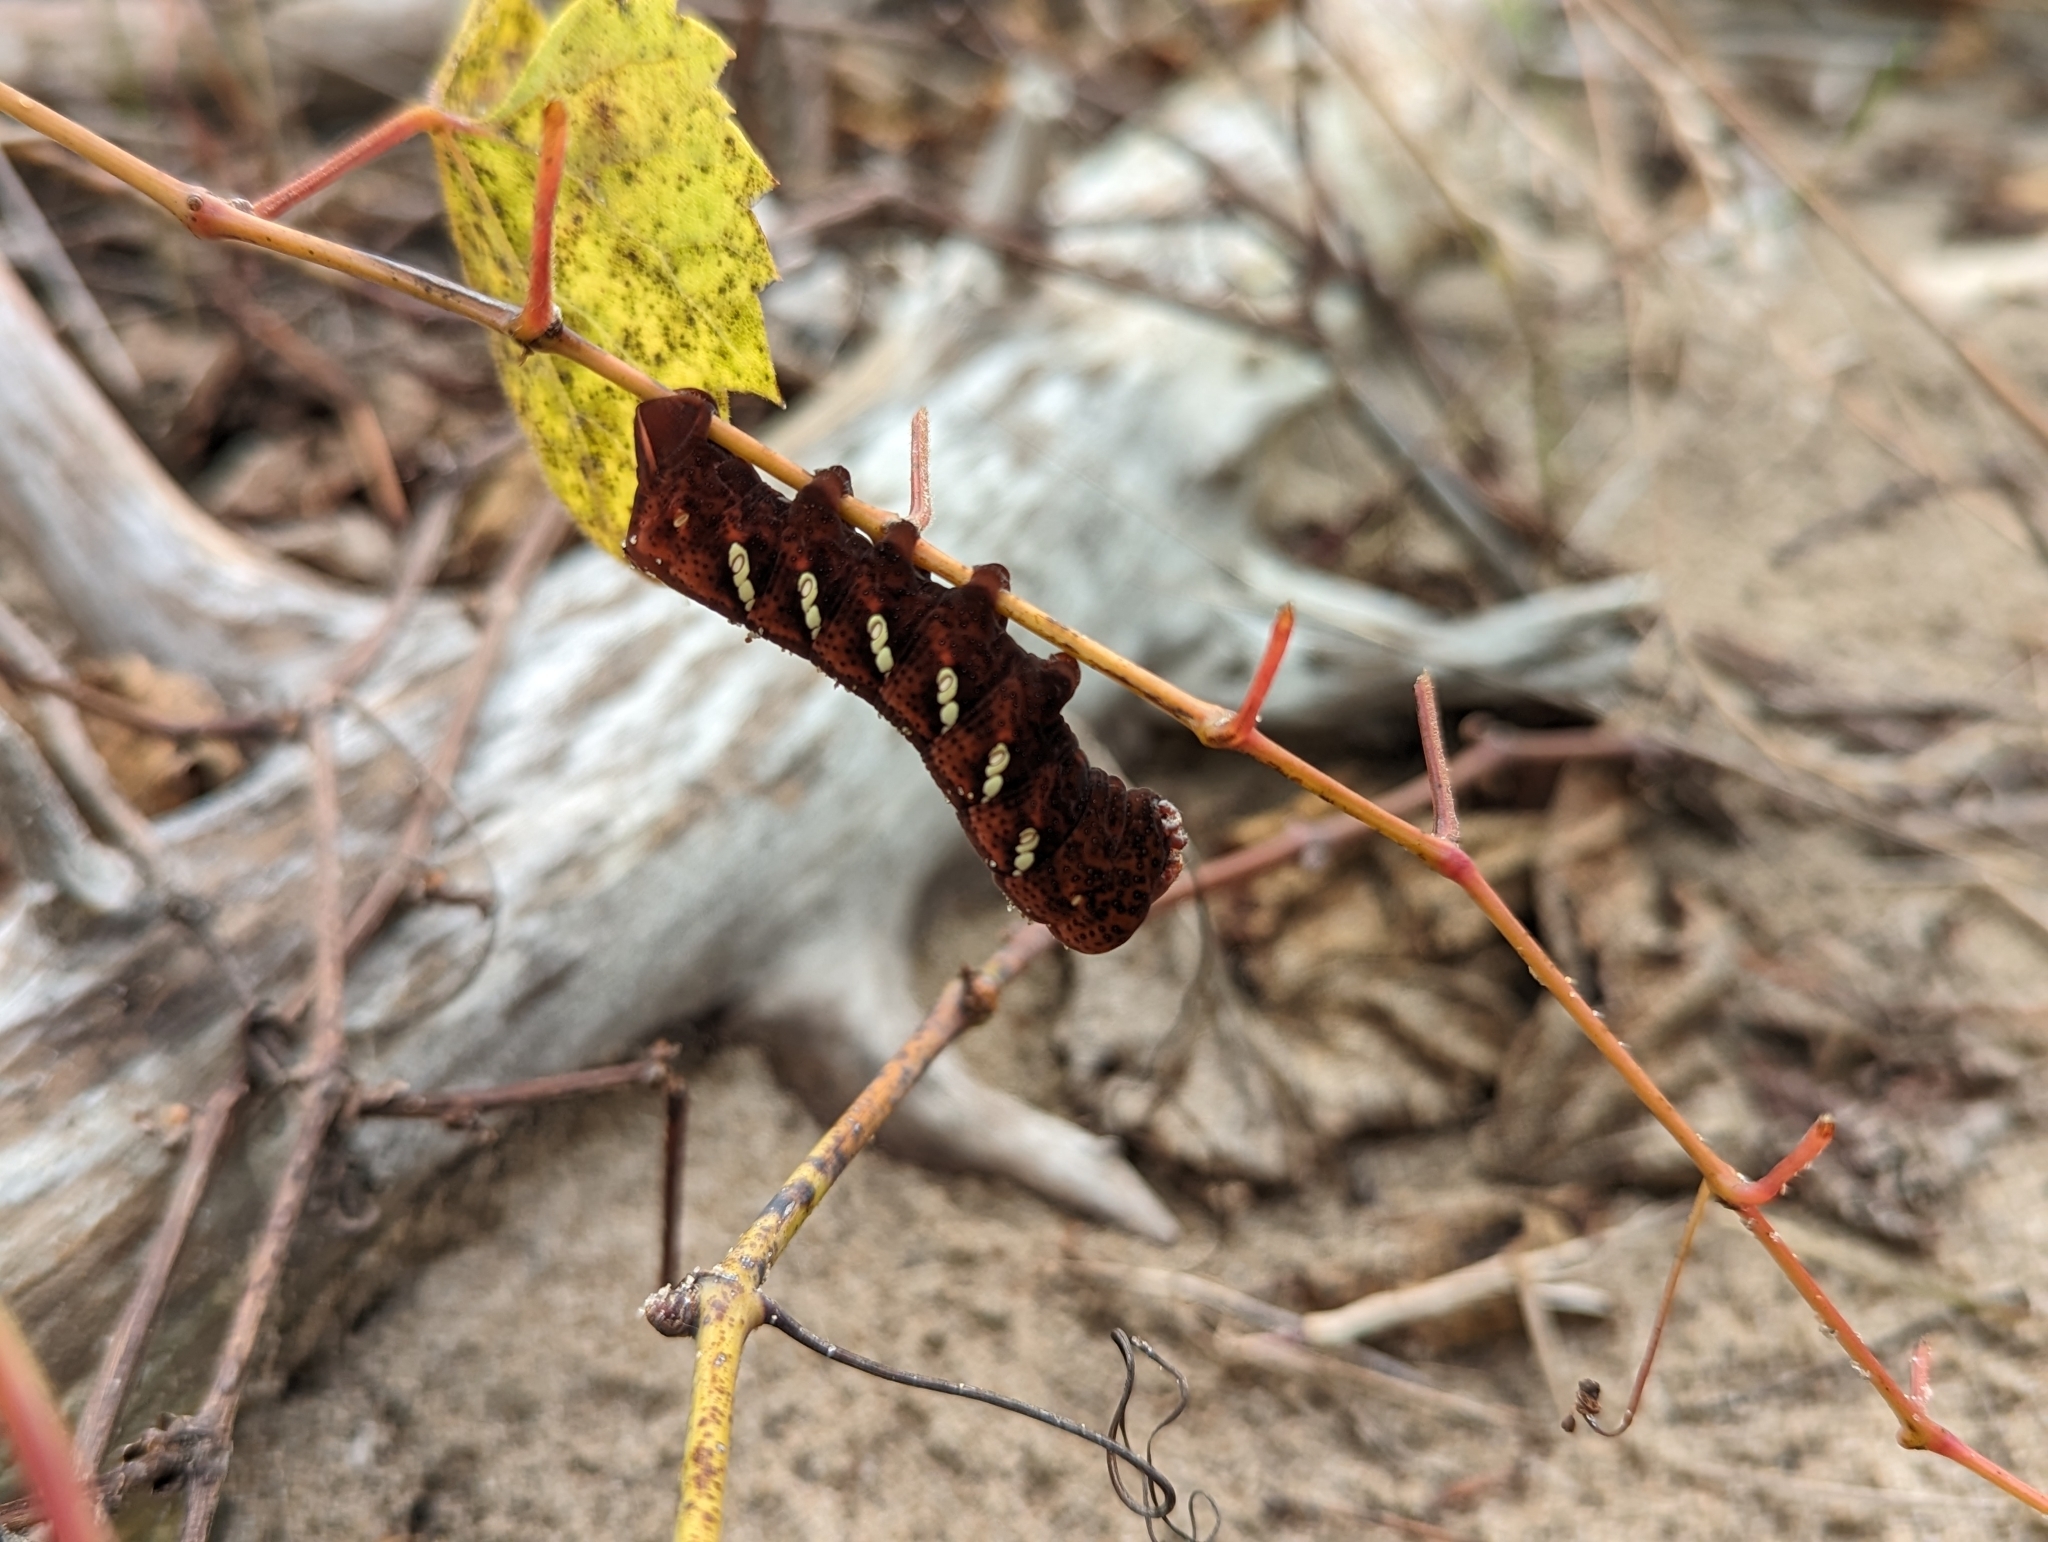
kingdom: Animalia
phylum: Arthropoda
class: Insecta
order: Lepidoptera
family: Sphingidae
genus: Eumorpha
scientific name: Eumorpha achemon
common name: Achemon sphinx
